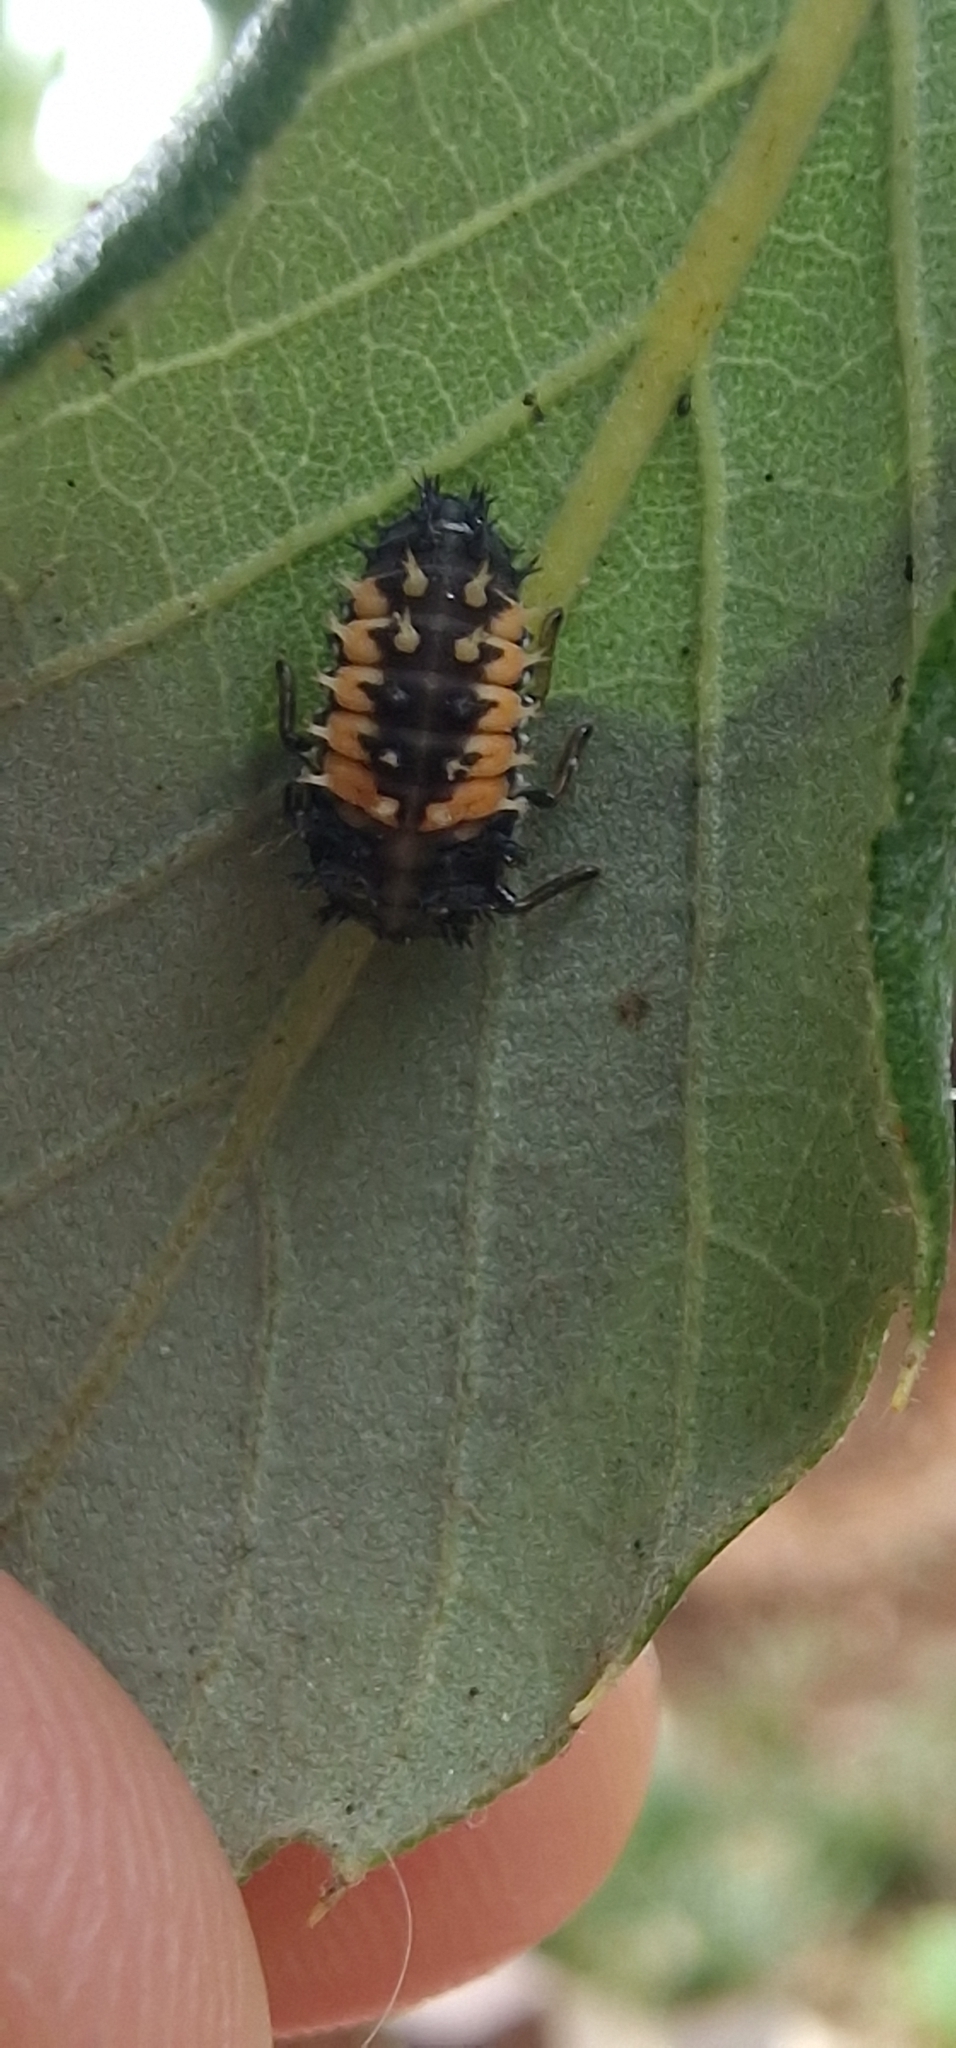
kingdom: Animalia
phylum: Arthropoda
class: Insecta
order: Coleoptera
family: Coccinellidae
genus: Harmonia
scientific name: Harmonia axyridis
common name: Harlequin ladybird
